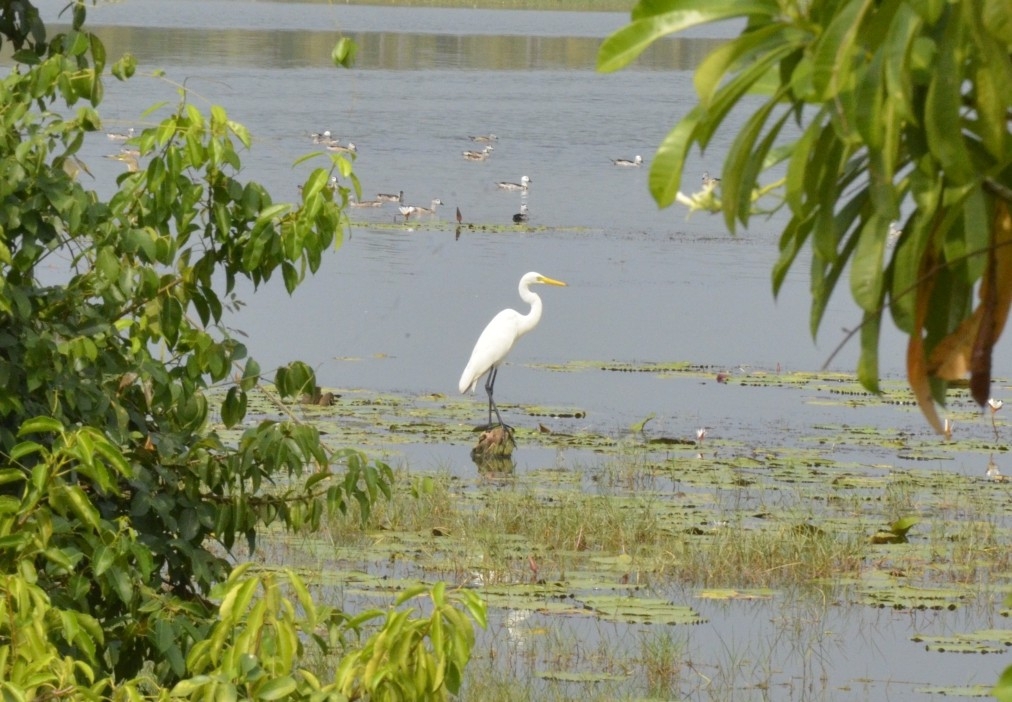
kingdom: Animalia
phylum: Chordata
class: Aves
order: Pelecaniformes
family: Ardeidae
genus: Egretta
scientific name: Egretta intermedia
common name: Intermediate egret
